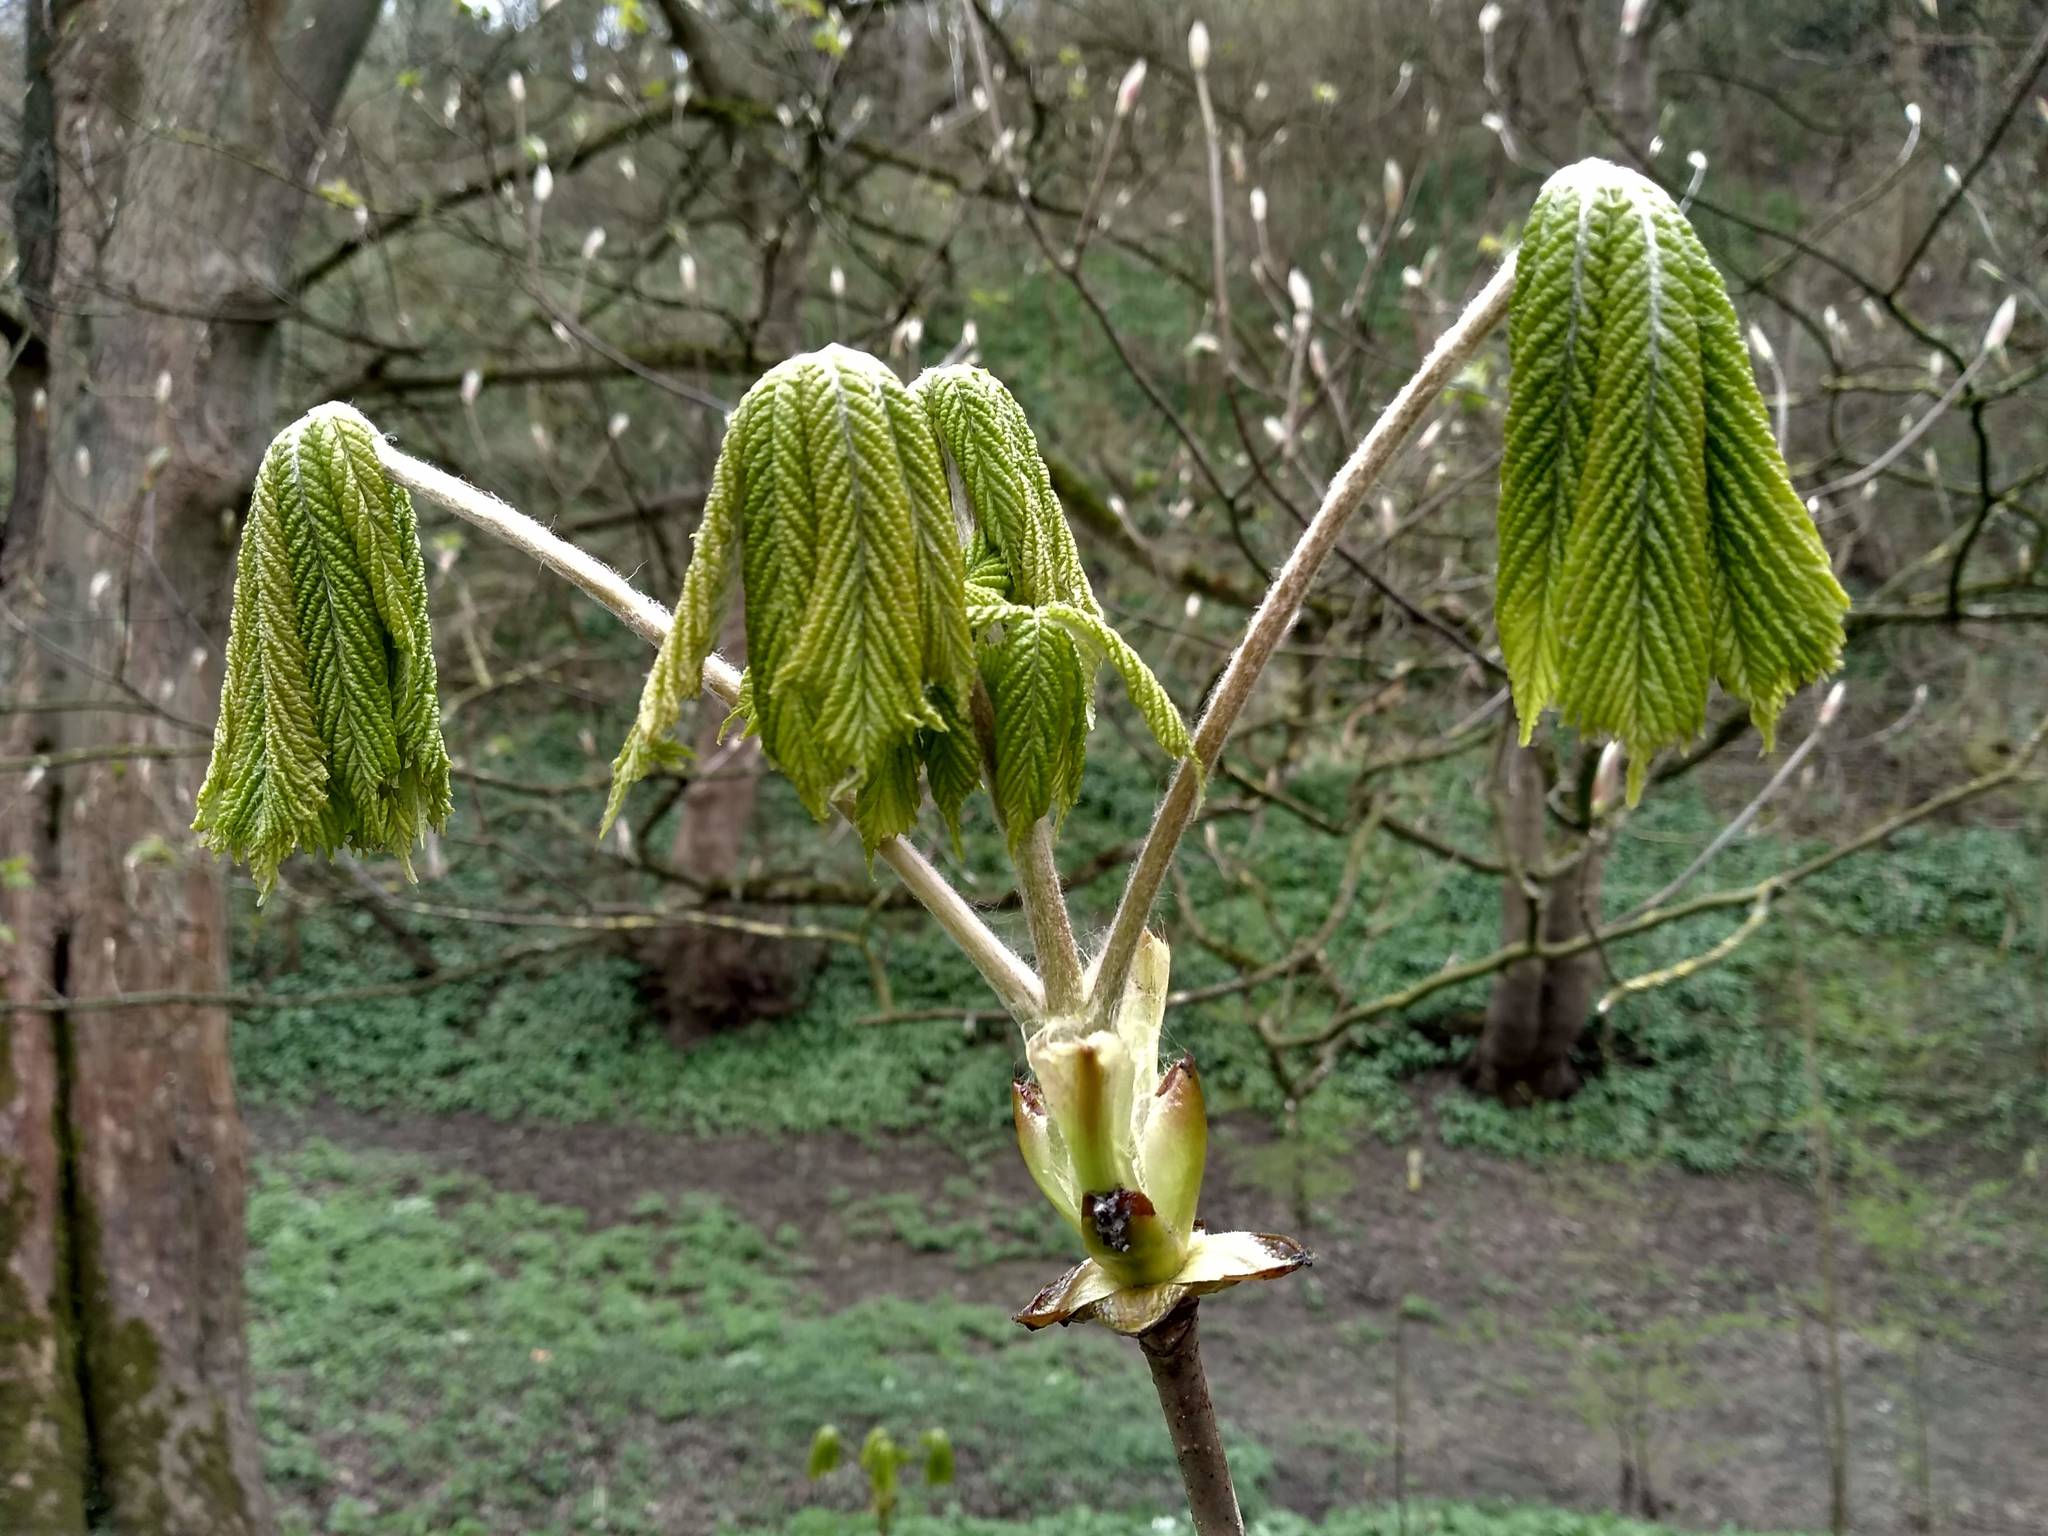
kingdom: Plantae
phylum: Tracheophyta
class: Magnoliopsida
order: Sapindales
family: Sapindaceae
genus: Aesculus
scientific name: Aesculus hippocastanum
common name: Horse-chestnut
